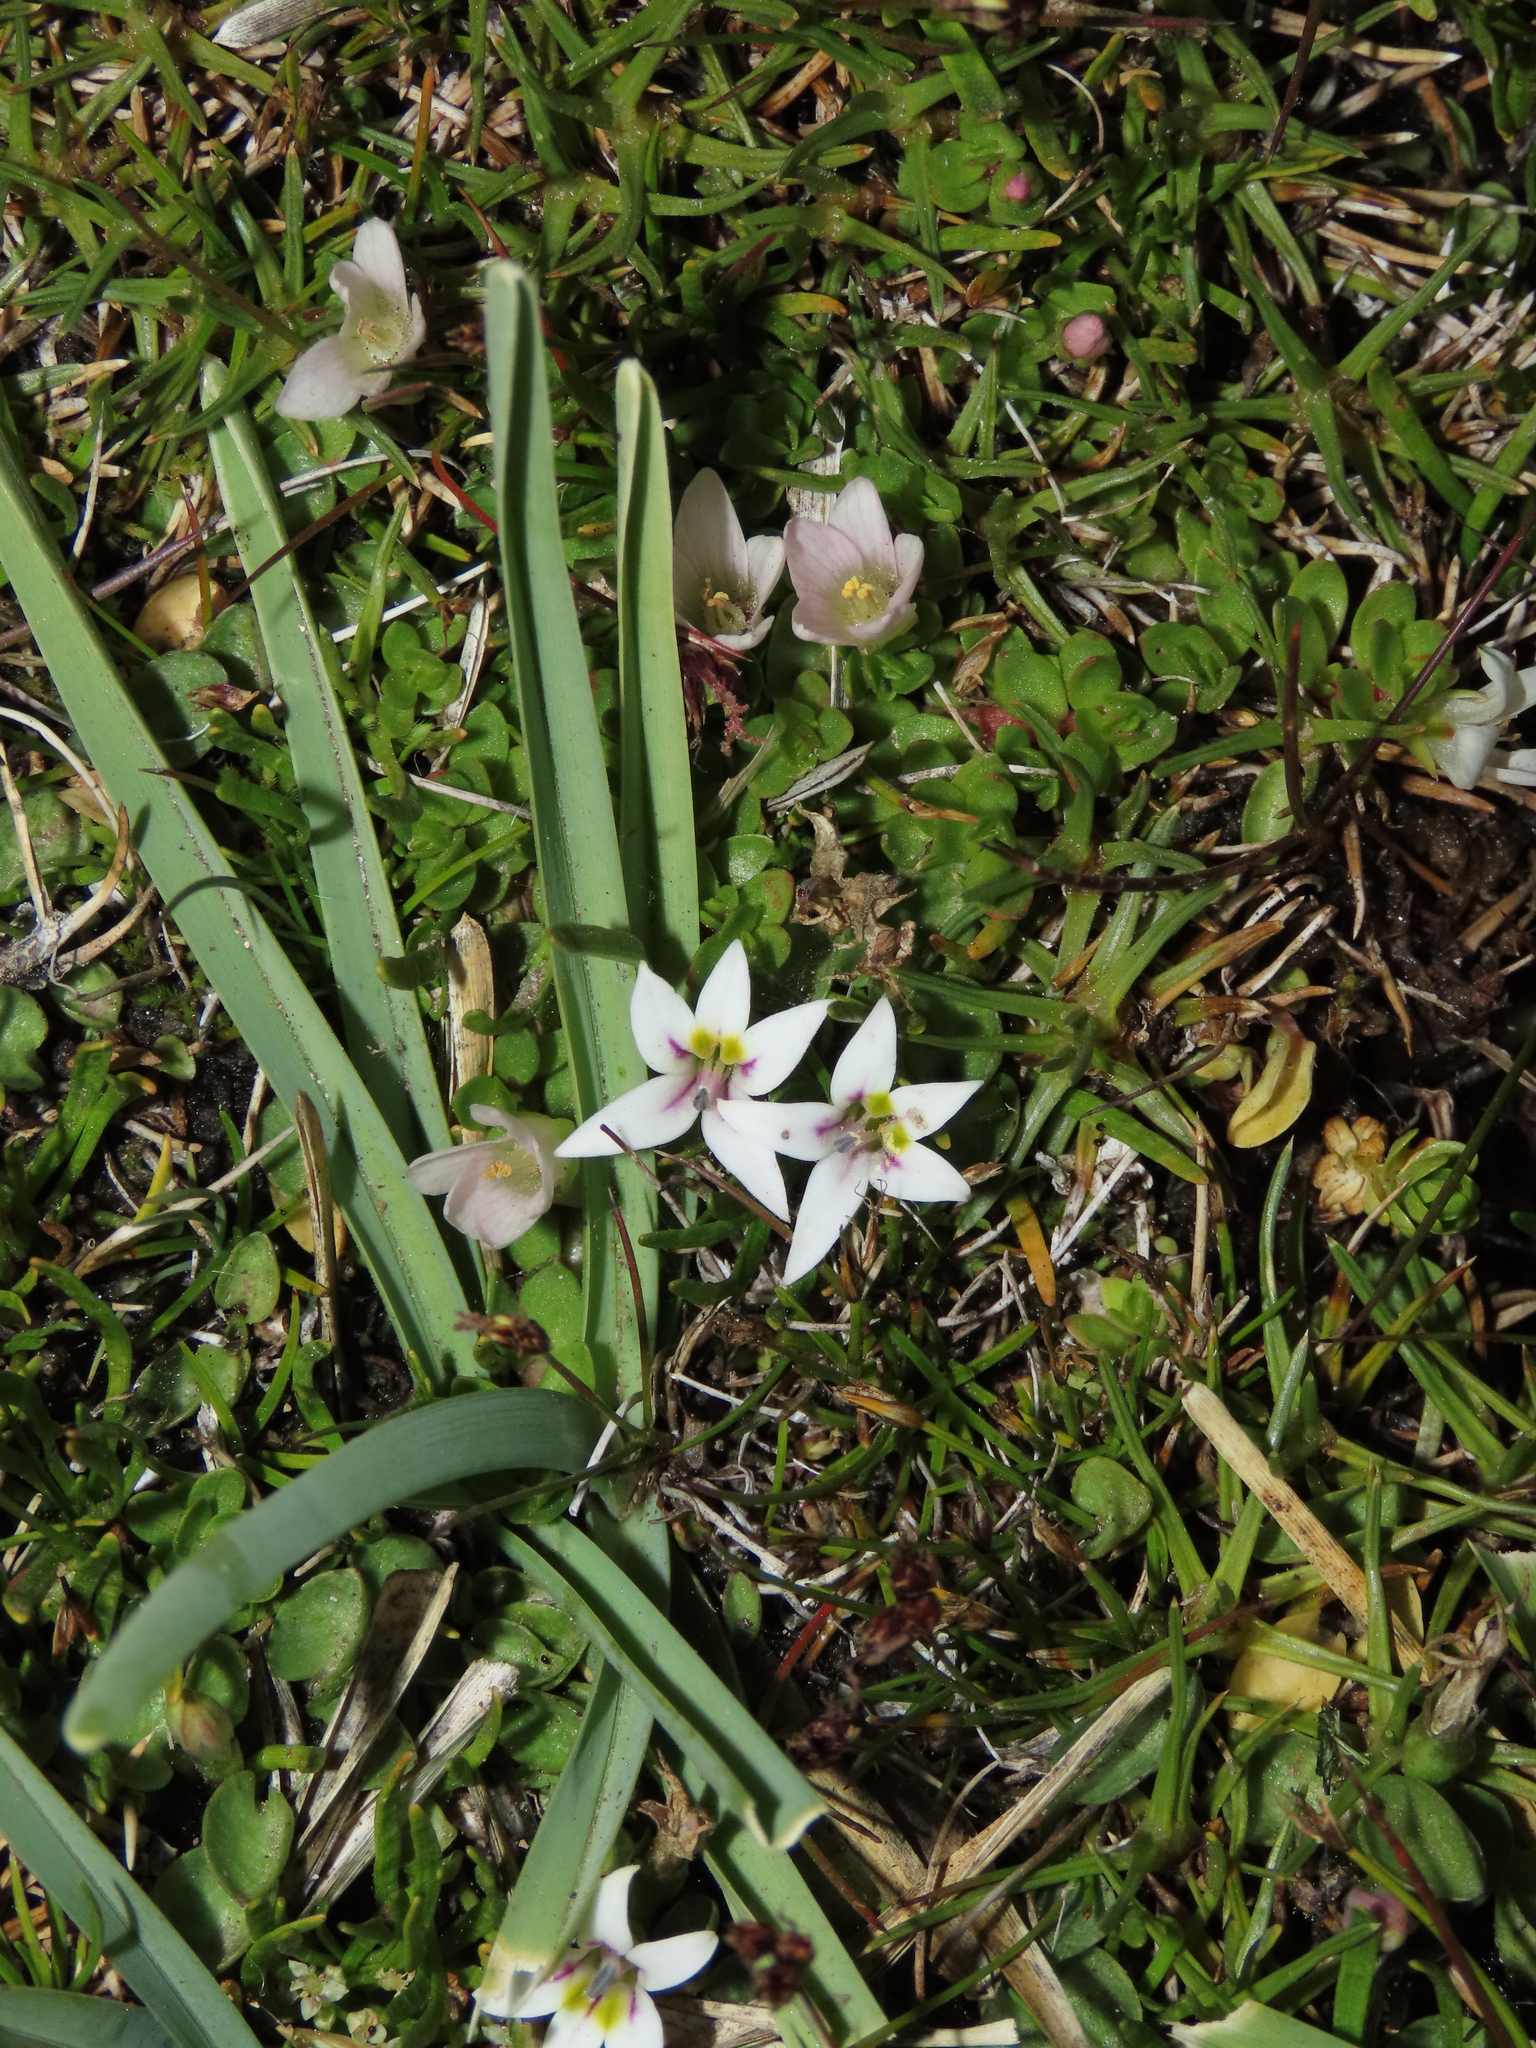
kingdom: Plantae
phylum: Tracheophyta
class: Magnoliopsida
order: Asterales
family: Campanulaceae
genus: Lobelia
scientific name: Lobelia oligophylla
